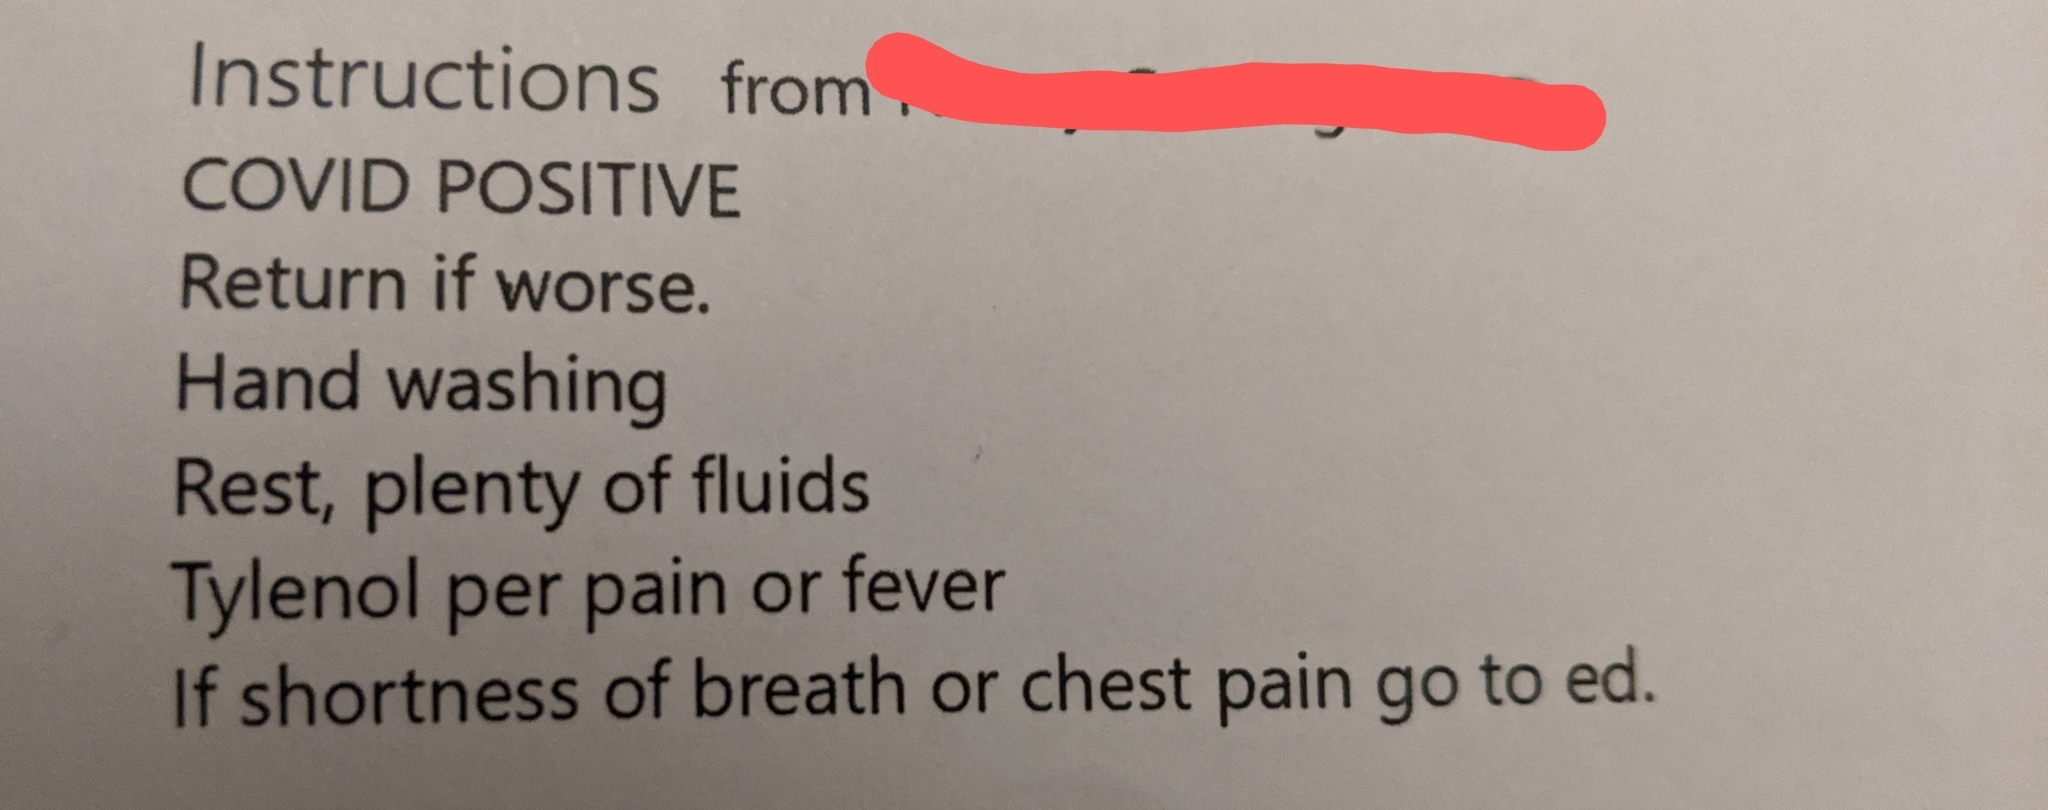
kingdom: Viruses
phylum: Pisuviricota
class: Pisoniviricetes
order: Nidovirales
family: Coronaviridae
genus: Betacoronavirus
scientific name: Betacoronavirus
